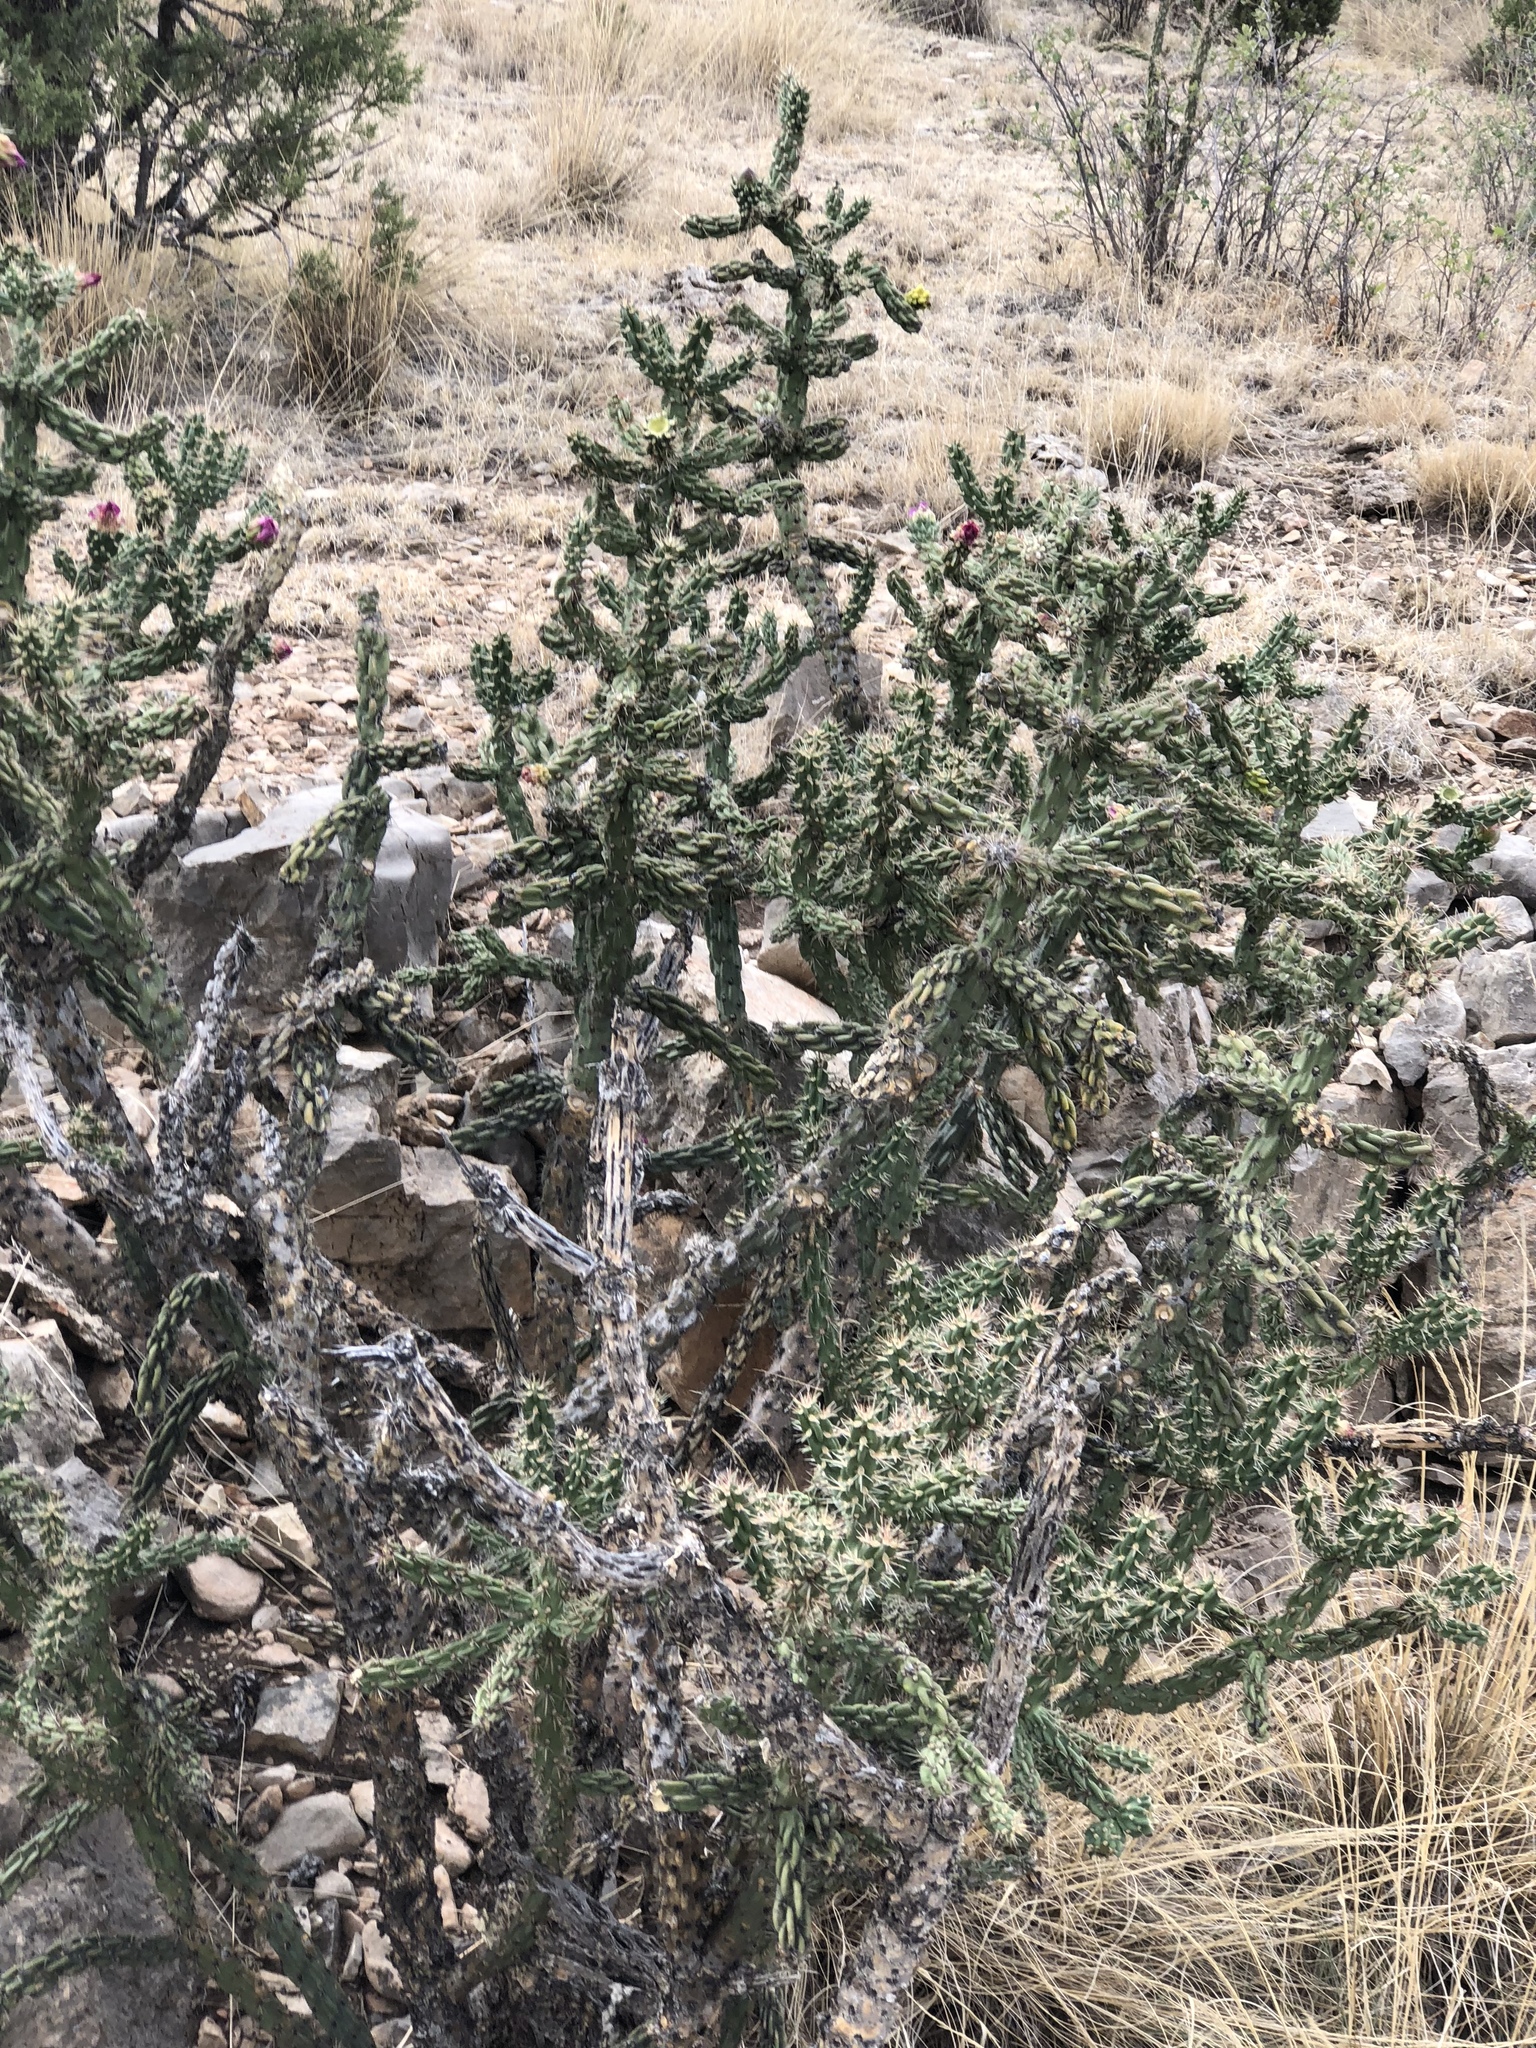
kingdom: Plantae
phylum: Tracheophyta
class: Magnoliopsida
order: Caryophyllales
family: Cactaceae
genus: Cylindropuntia
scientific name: Cylindropuntia imbricata
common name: Candelabrum cactus
